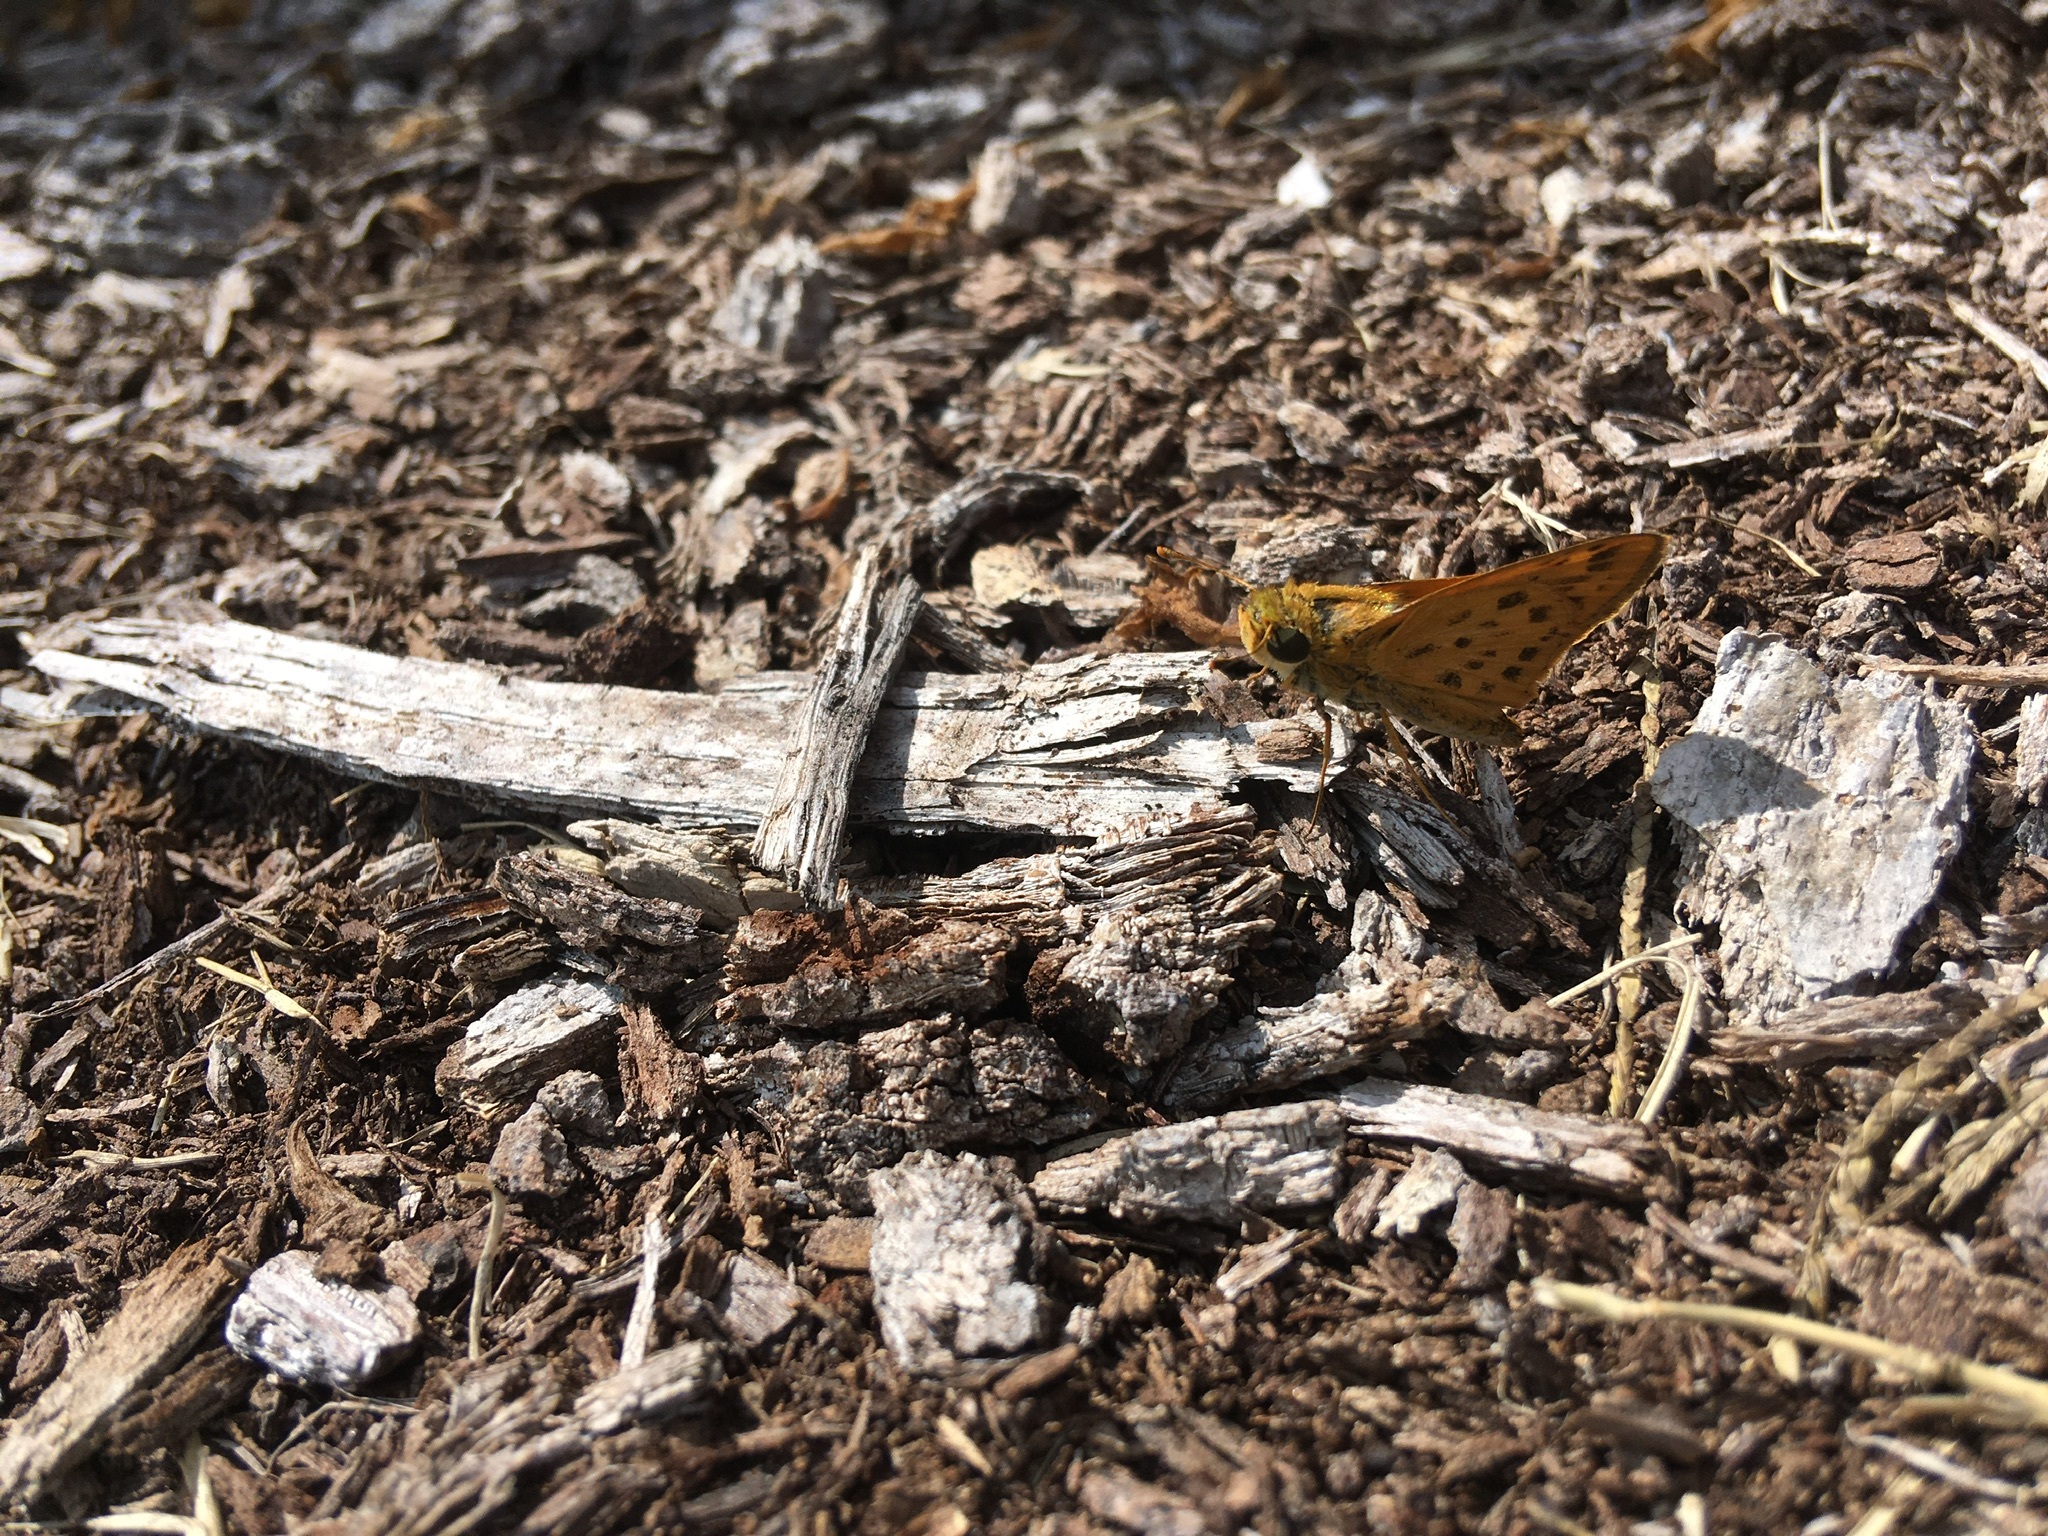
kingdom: Animalia
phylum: Arthropoda
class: Insecta
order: Lepidoptera
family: Hesperiidae
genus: Hylephila
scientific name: Hylephila phyleus
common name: Fiery skipper
